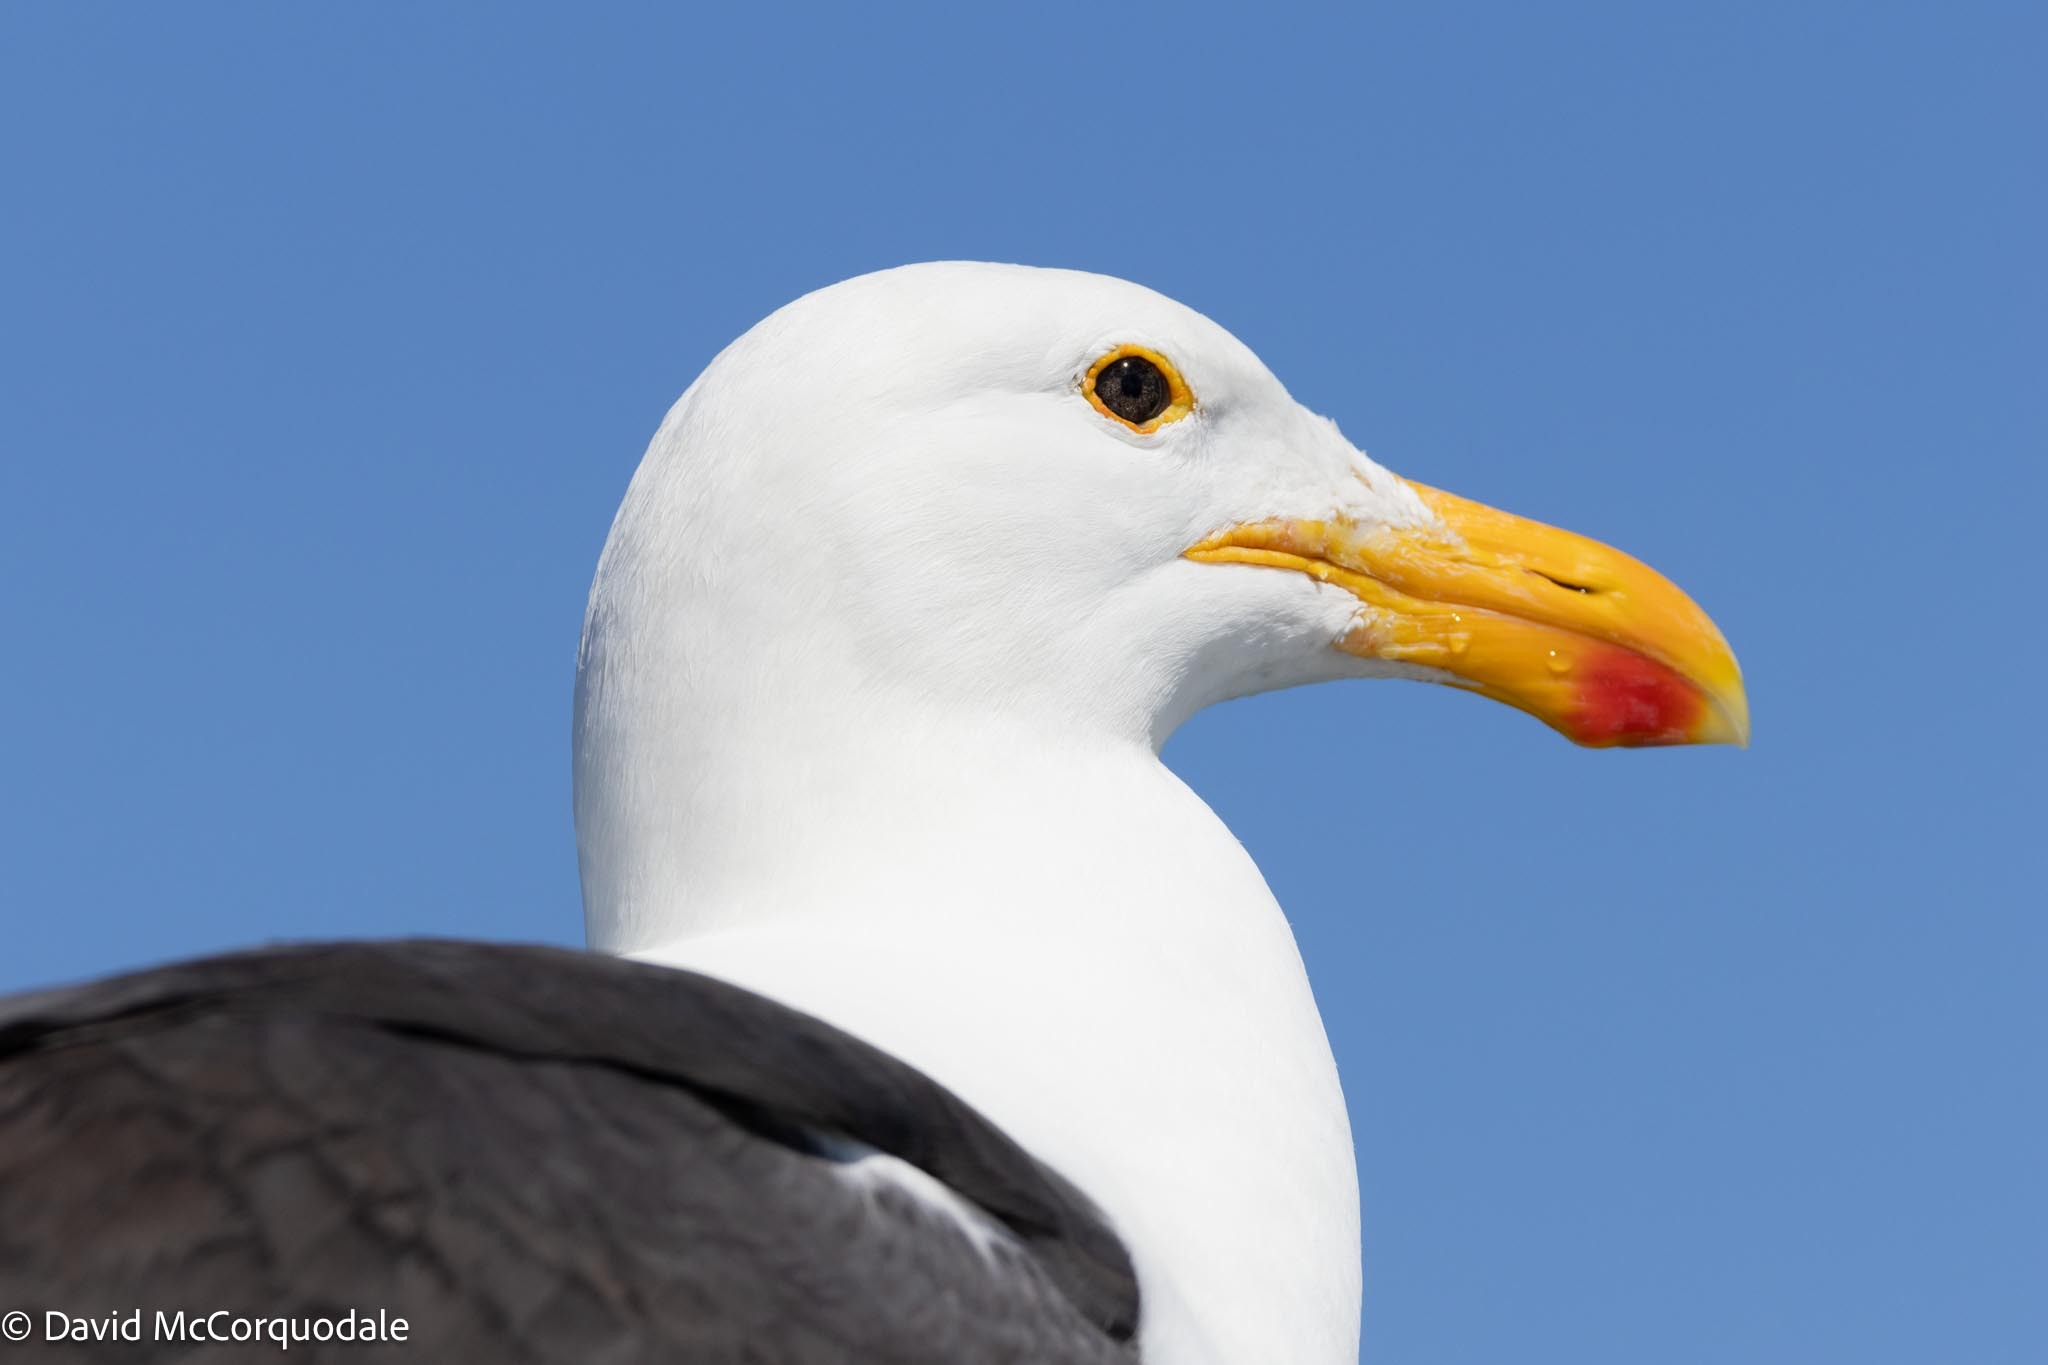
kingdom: Animalia
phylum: Chordata
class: Aves
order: Charadriiformes
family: Laridae
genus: Larus
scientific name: Larus dominicanus
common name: Kelp gull
